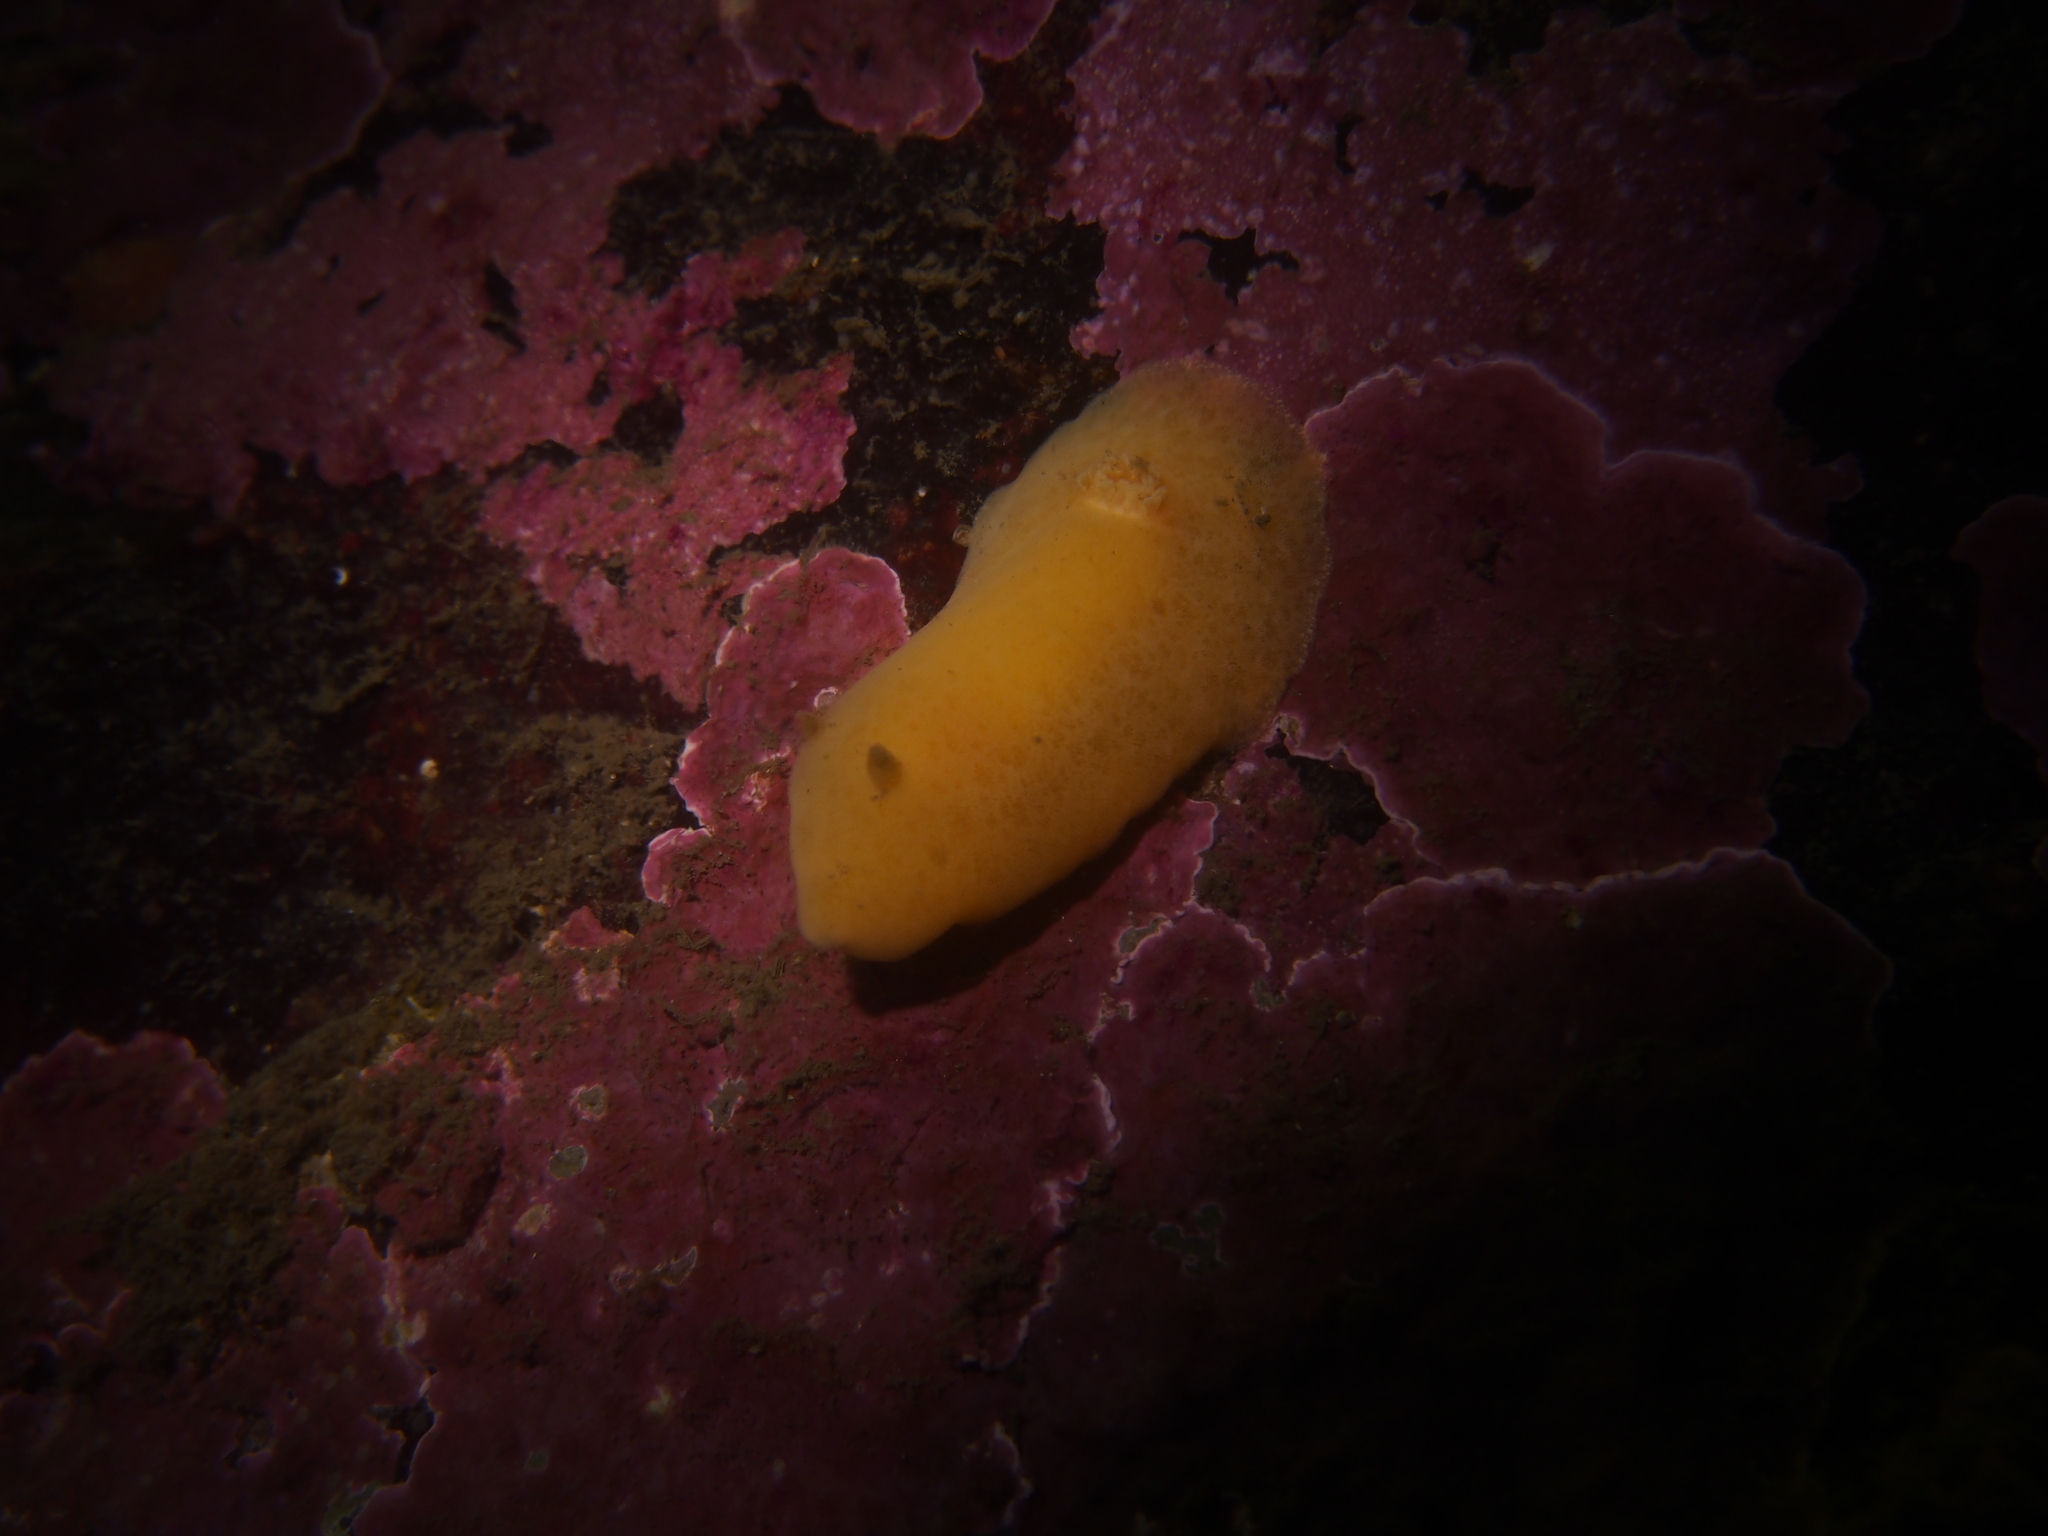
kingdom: Animalia
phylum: Mollusca
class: Gastropoda
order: Nudibranchia
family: Discodorididae
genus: Jorunna
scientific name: Jorunna tomentosa
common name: Grey sea slug
